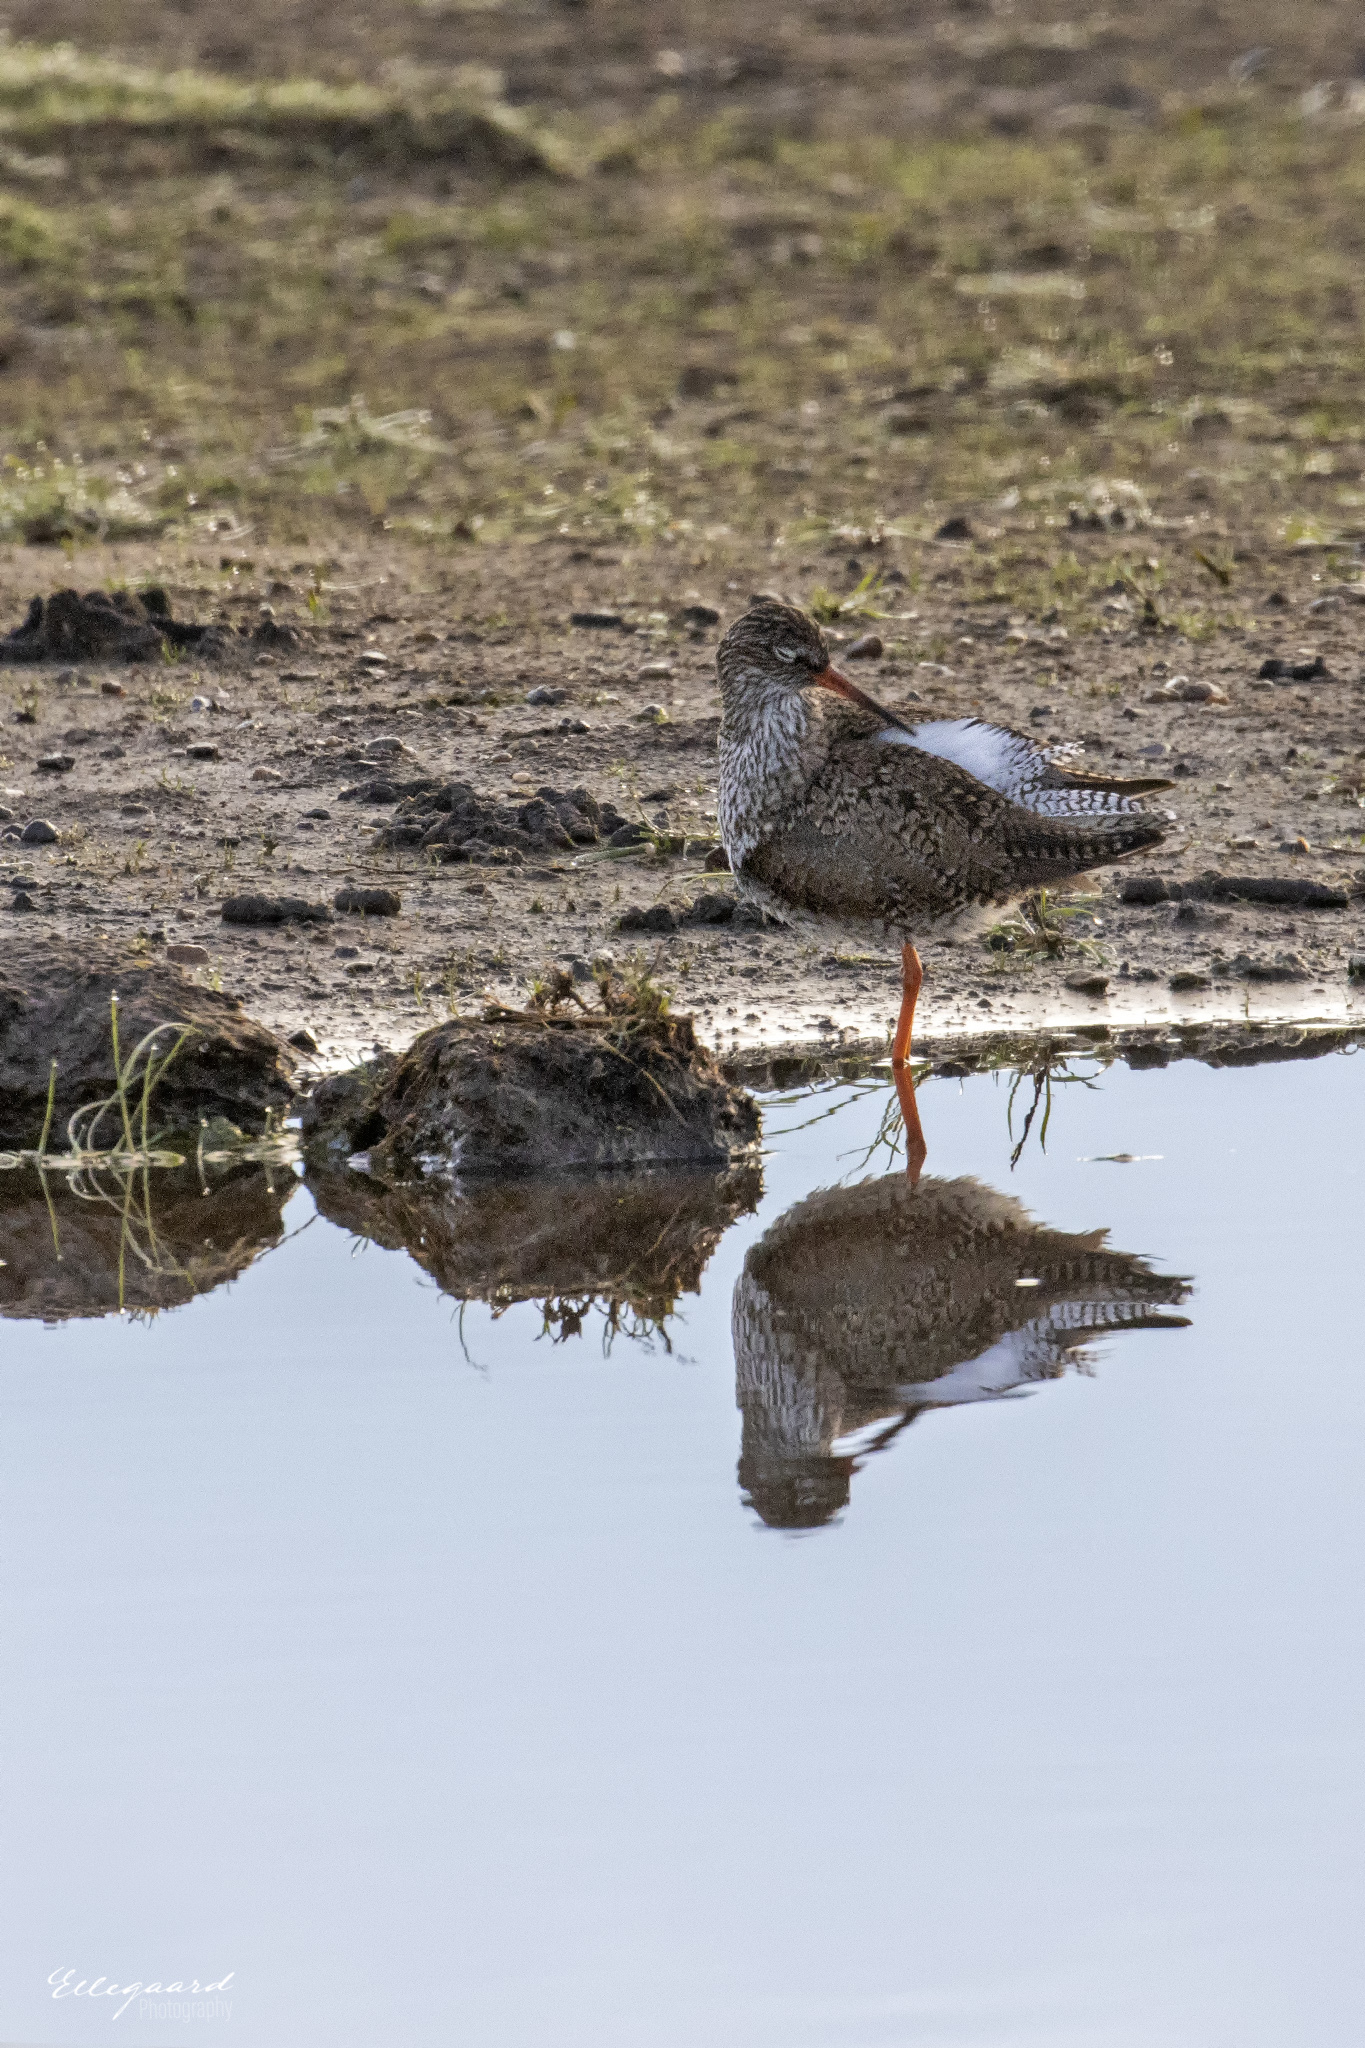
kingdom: Animalia
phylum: Chordata
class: Aves
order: Charadriiformes
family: Scolopacidae
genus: Tringa
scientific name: Tringa totanus
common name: Common redshank
